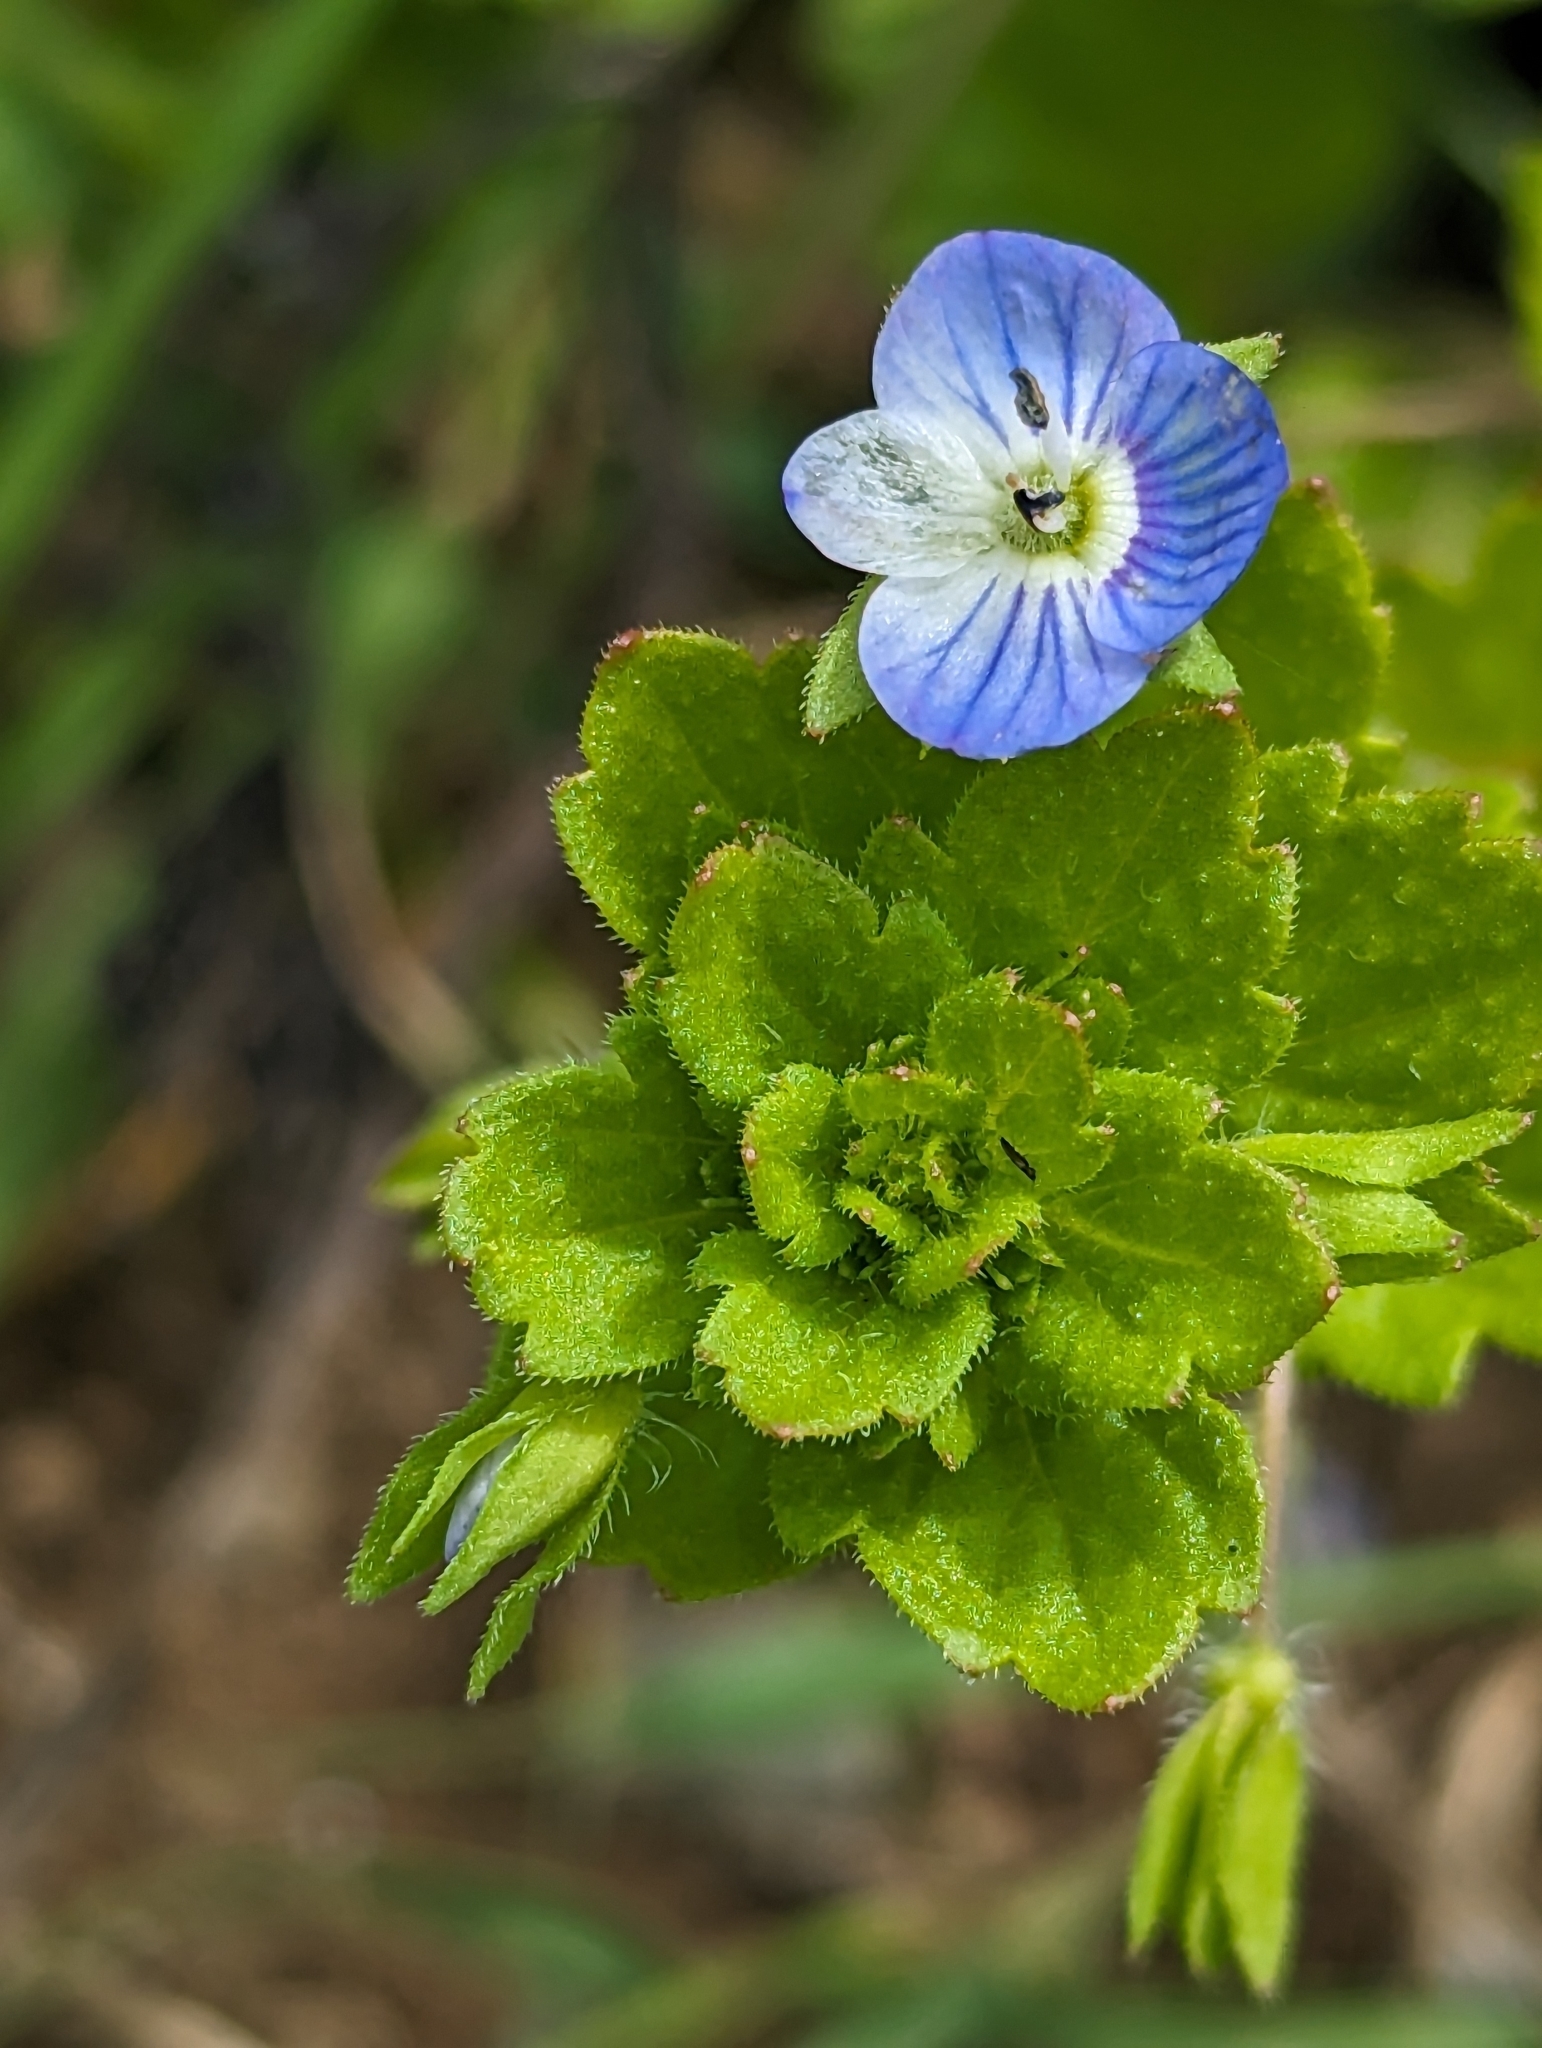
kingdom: Plantae
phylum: Tracheophyta
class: Magnoliopsida
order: Lamiales
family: Plantaginaceae
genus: Veronica
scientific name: Veronica persica
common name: Common field-speedwell
